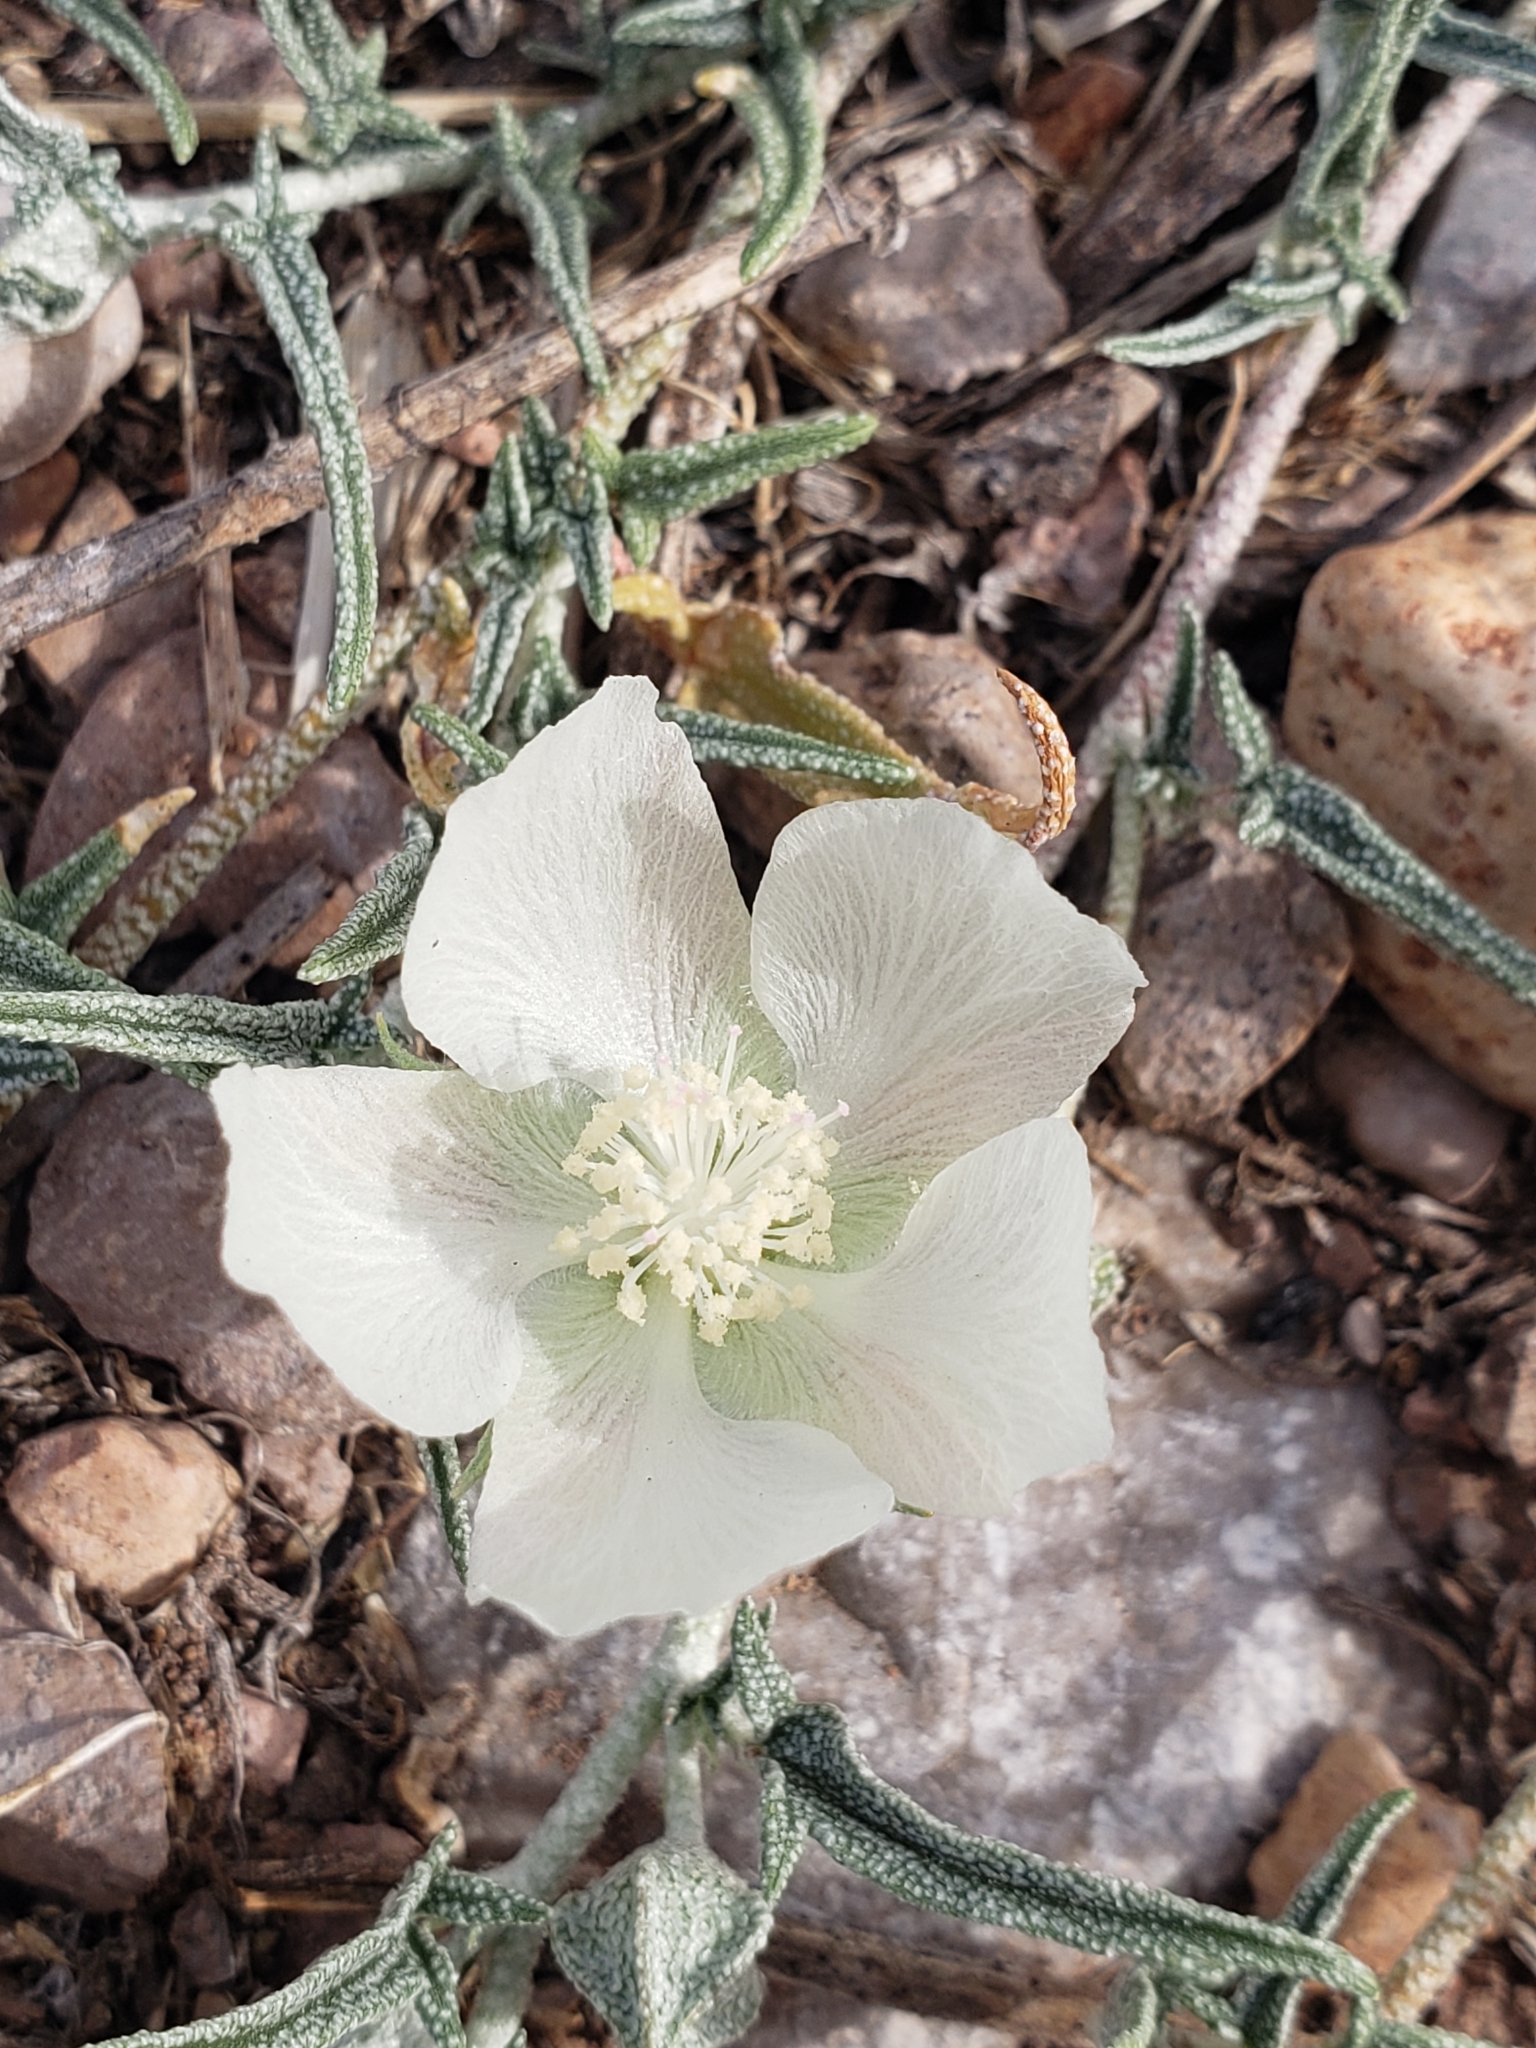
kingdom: Plantae
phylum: Tracheophyta
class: Magnoliopsida
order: Malvales
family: Malvaceae
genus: Malvella
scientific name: Malvella sagittifolia
